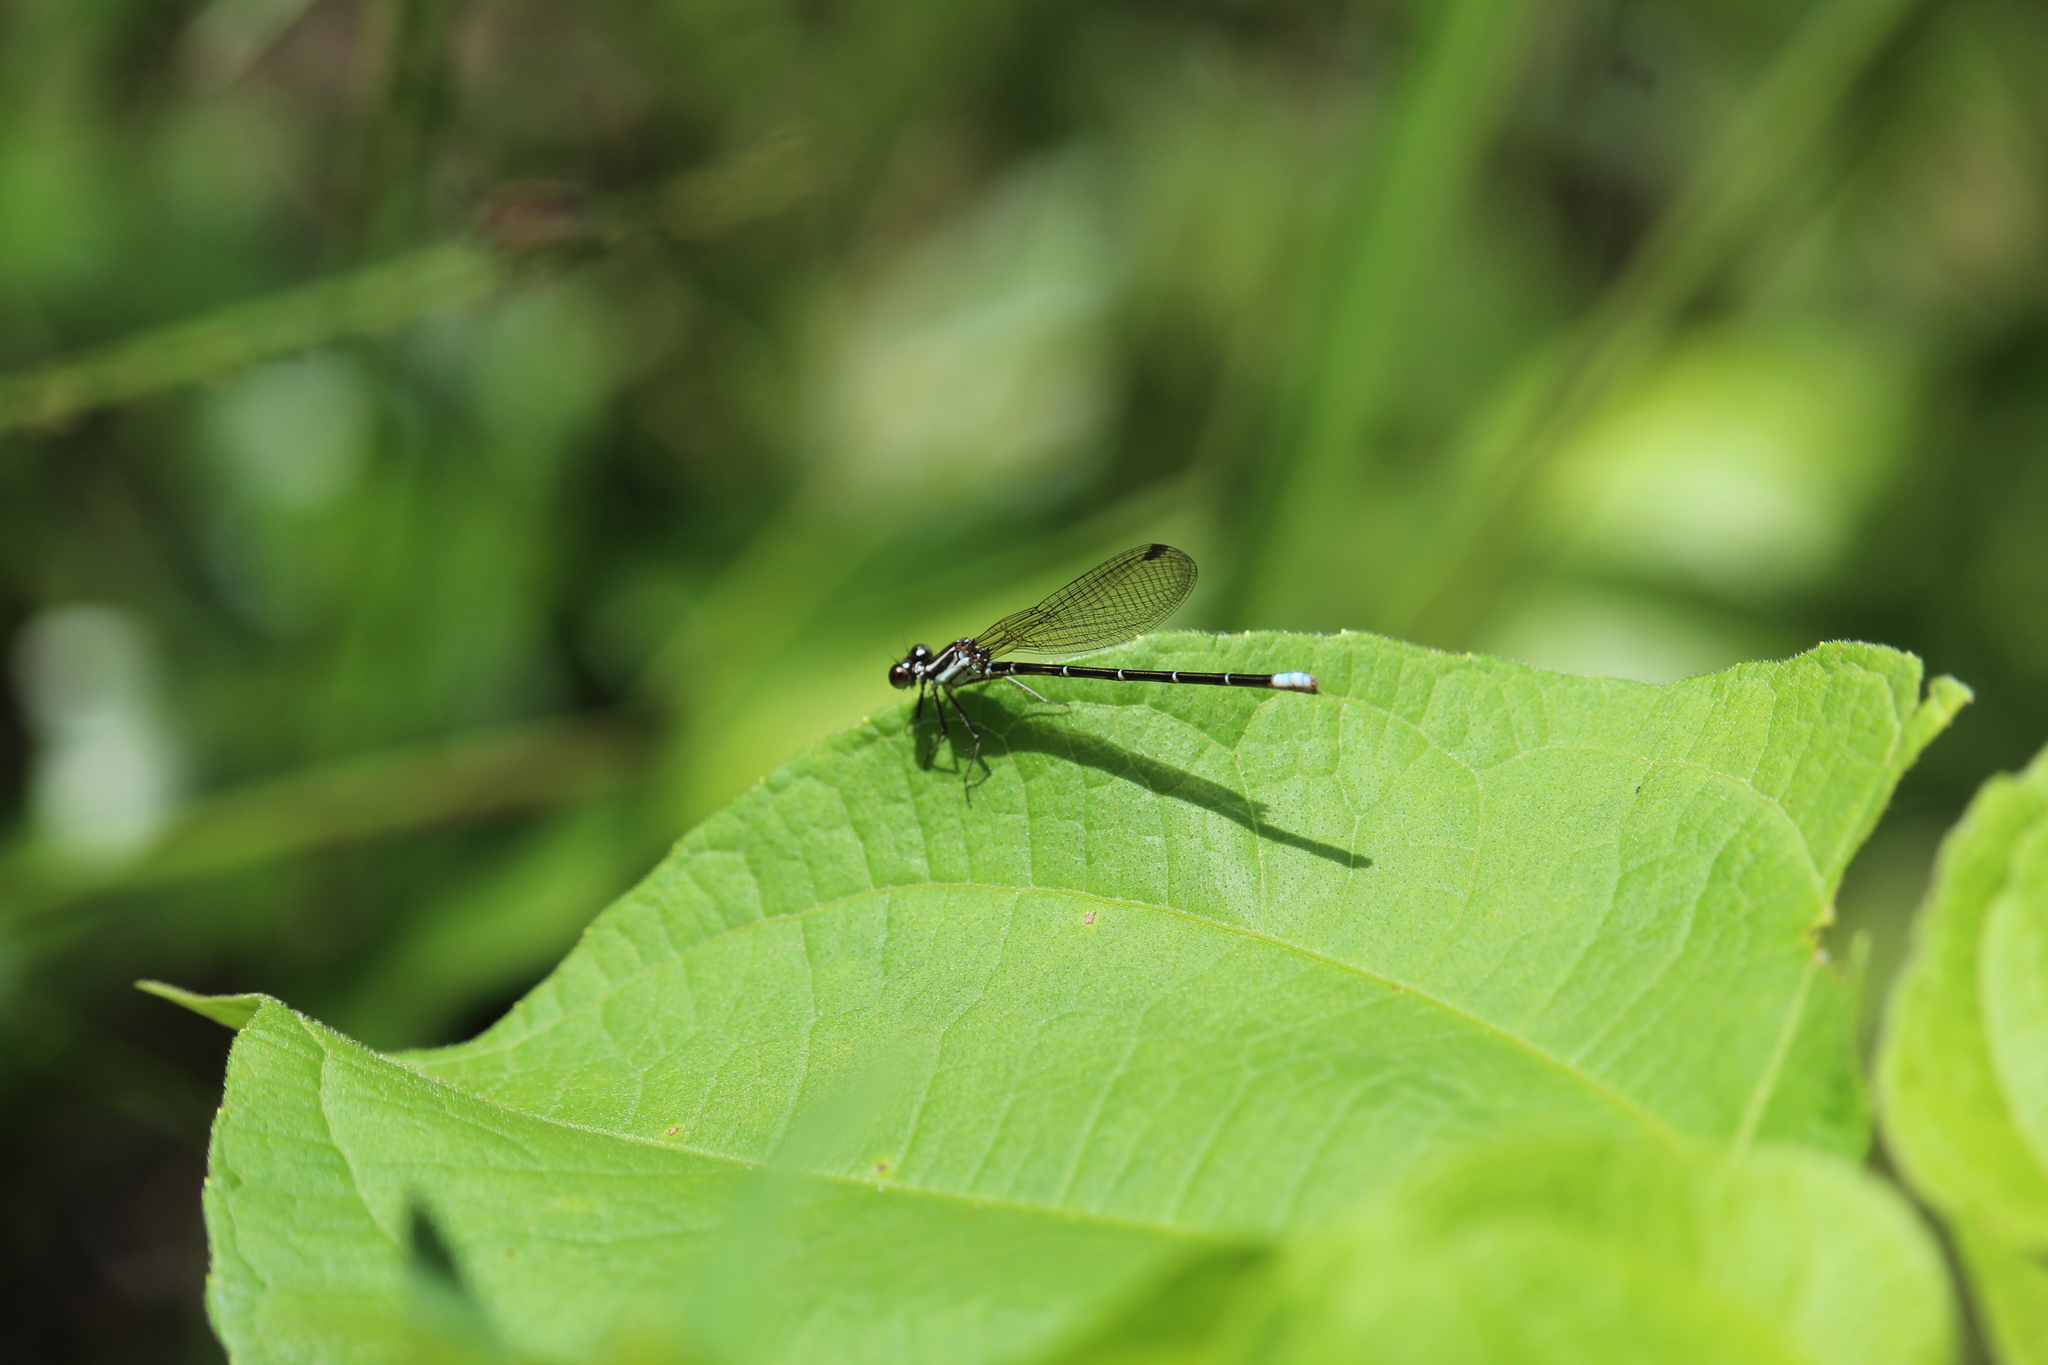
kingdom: Animalia
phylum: Arthropoda
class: Insecta
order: Odonata
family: Coenagrionidae
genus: Argia
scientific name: Argia gaumeri
